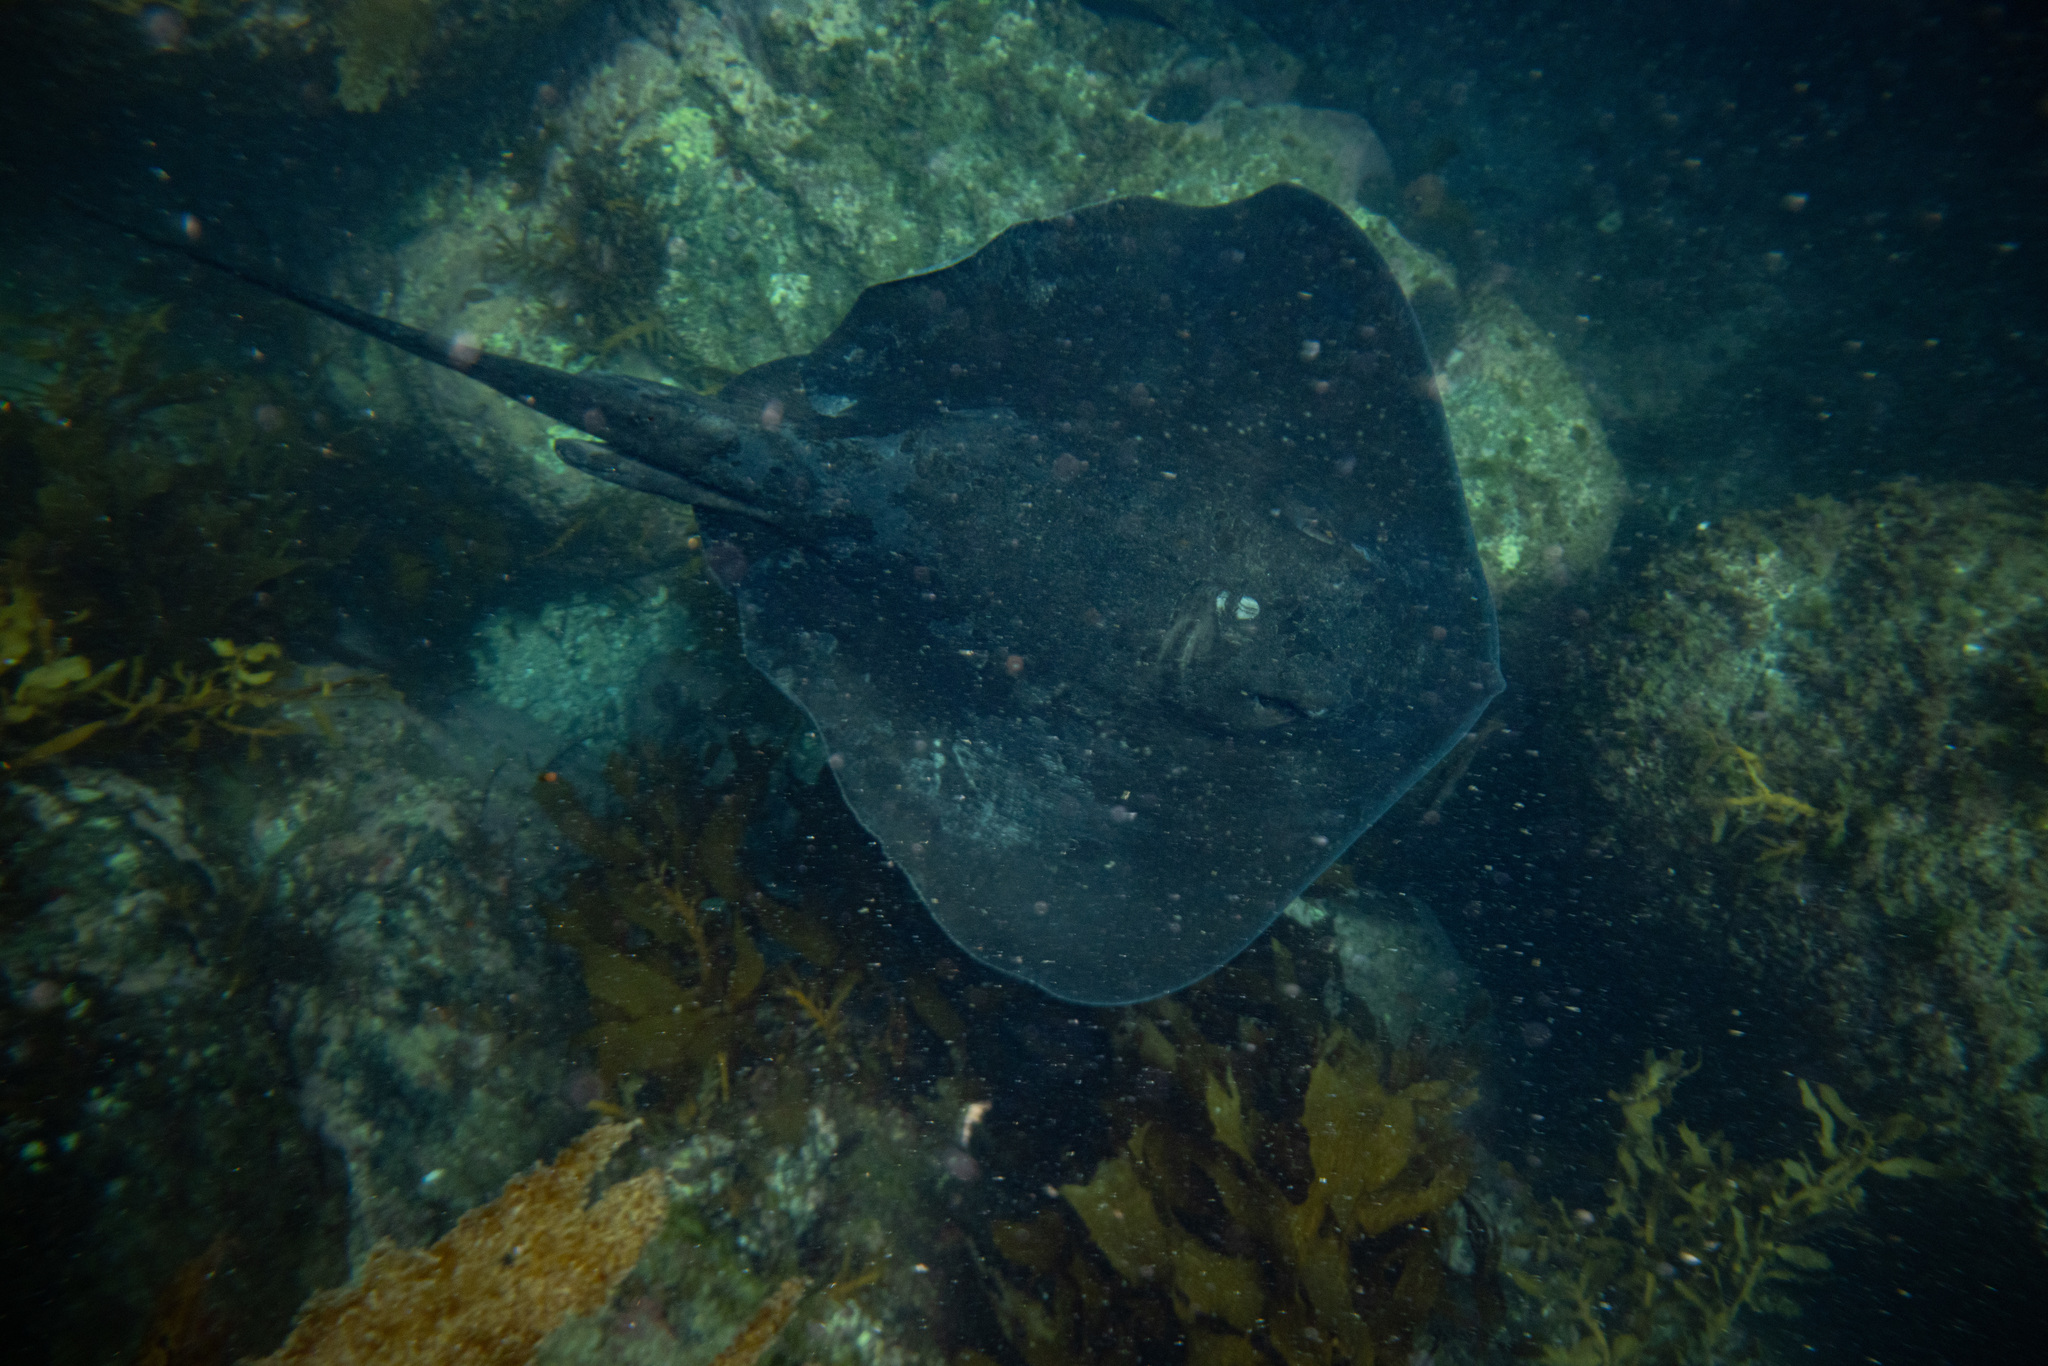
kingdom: Animalia
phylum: Chordata
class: Elasmobranchii
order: Myliobatiformes
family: Dasyatidae
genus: Bathytoshia
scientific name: Bathytoshia brevicaudata
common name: Short-tail stingray
